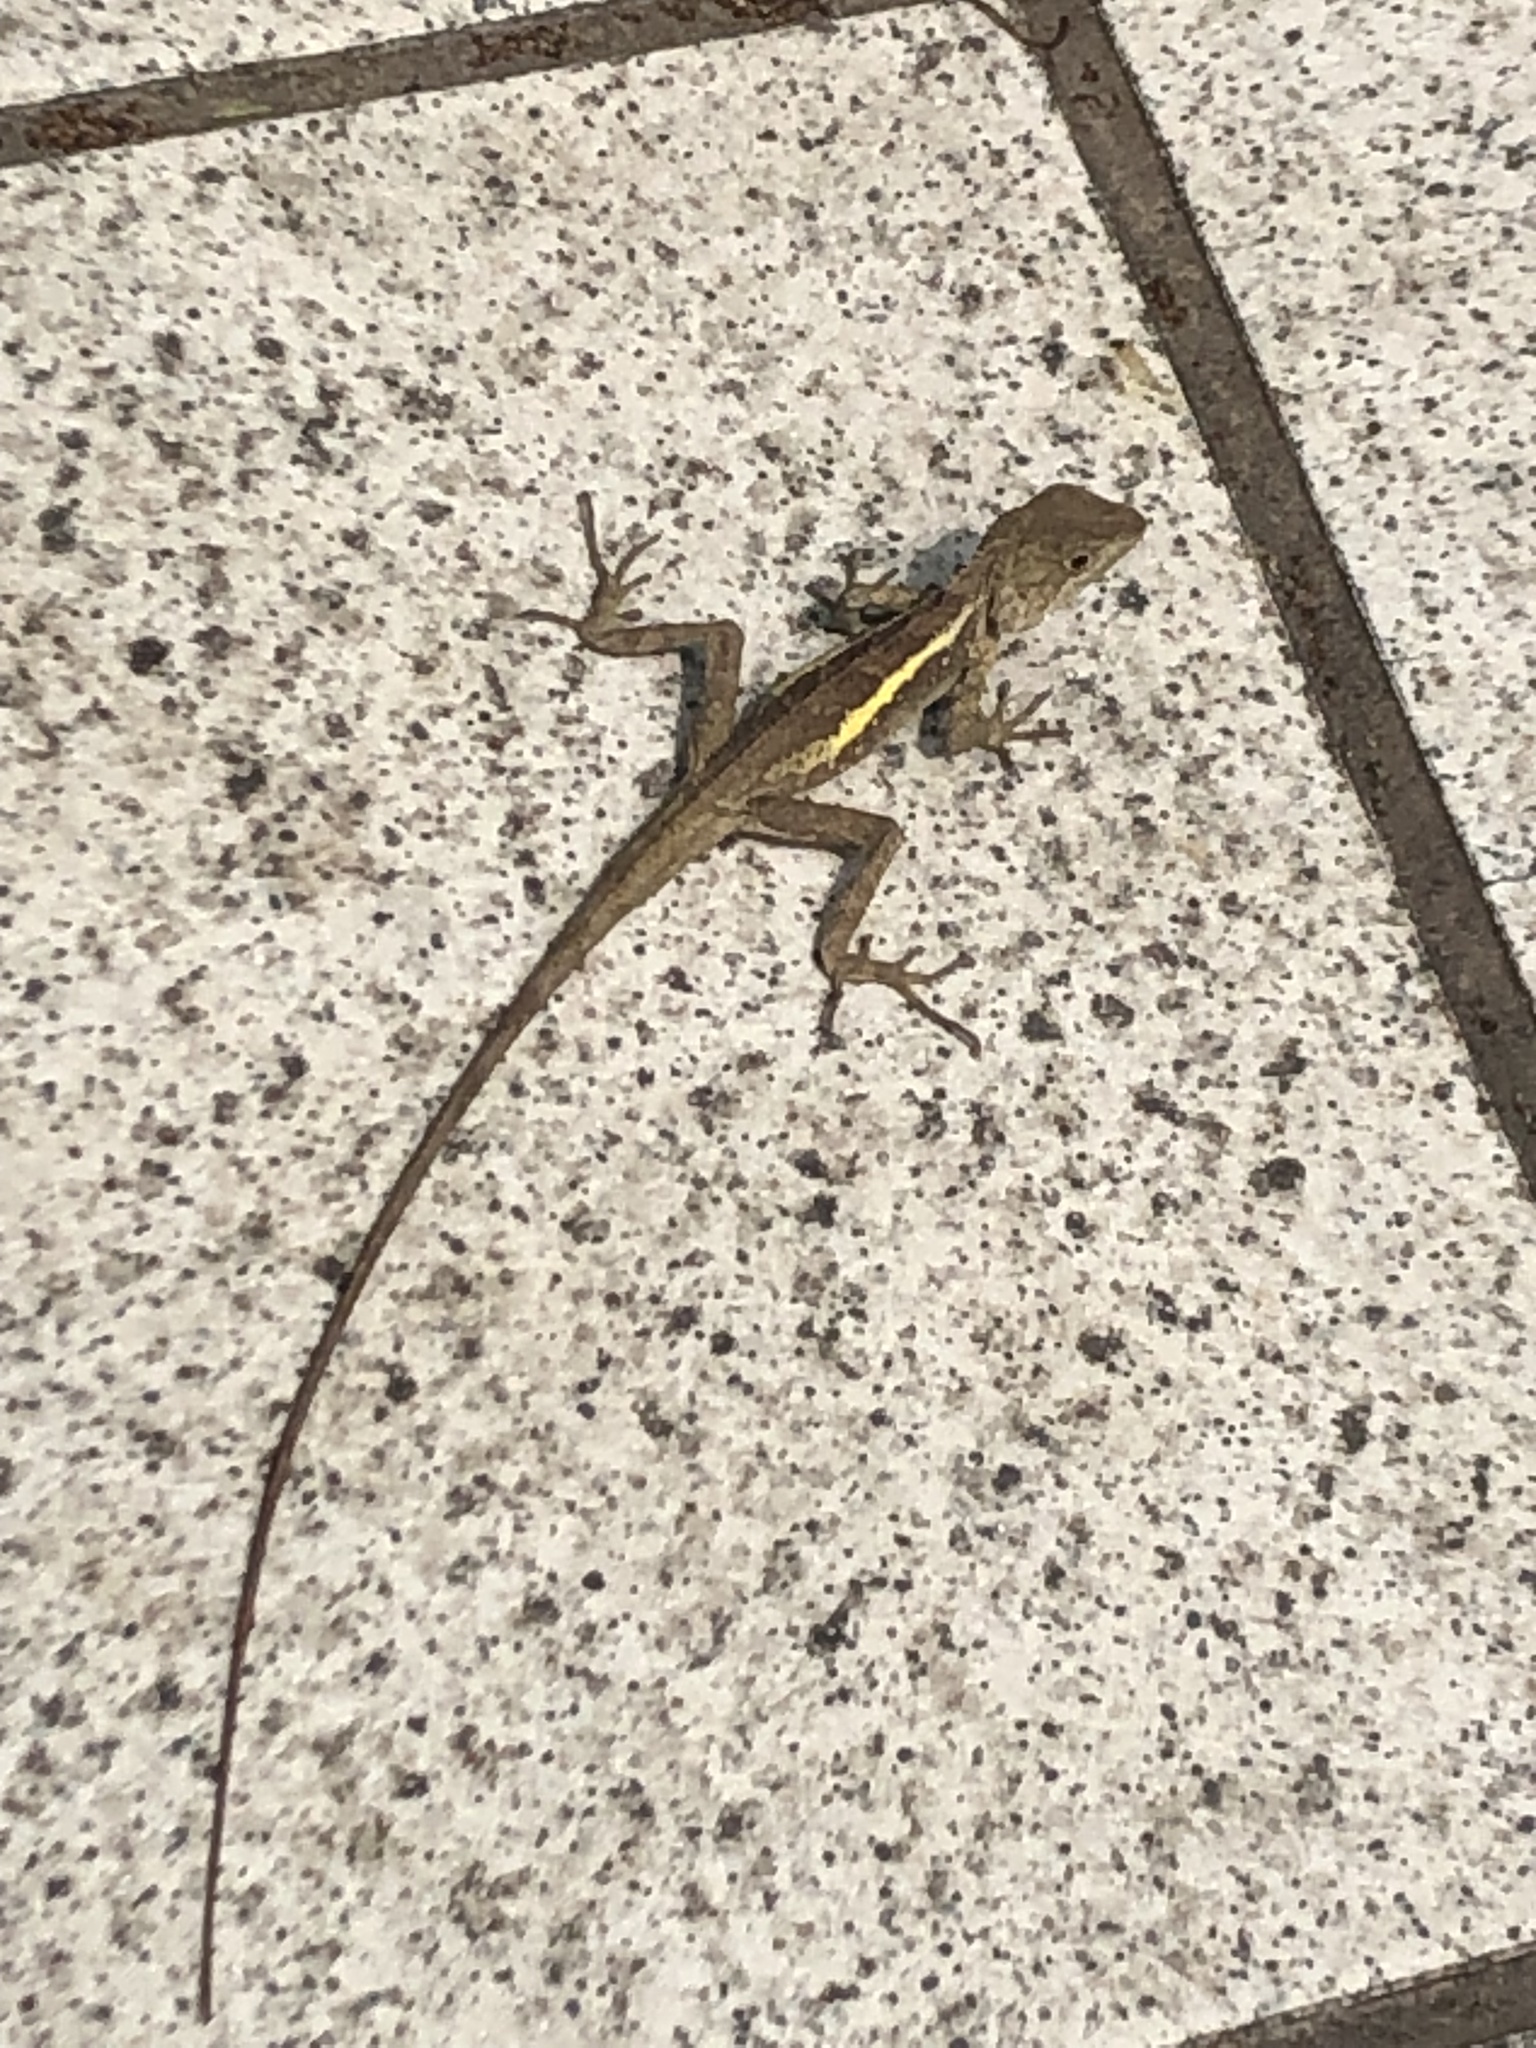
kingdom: Animalia
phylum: Chordata
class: Squamata
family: Agamidae
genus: Diploderma
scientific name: Diploderma swinhonis
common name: Taiwan japalure
